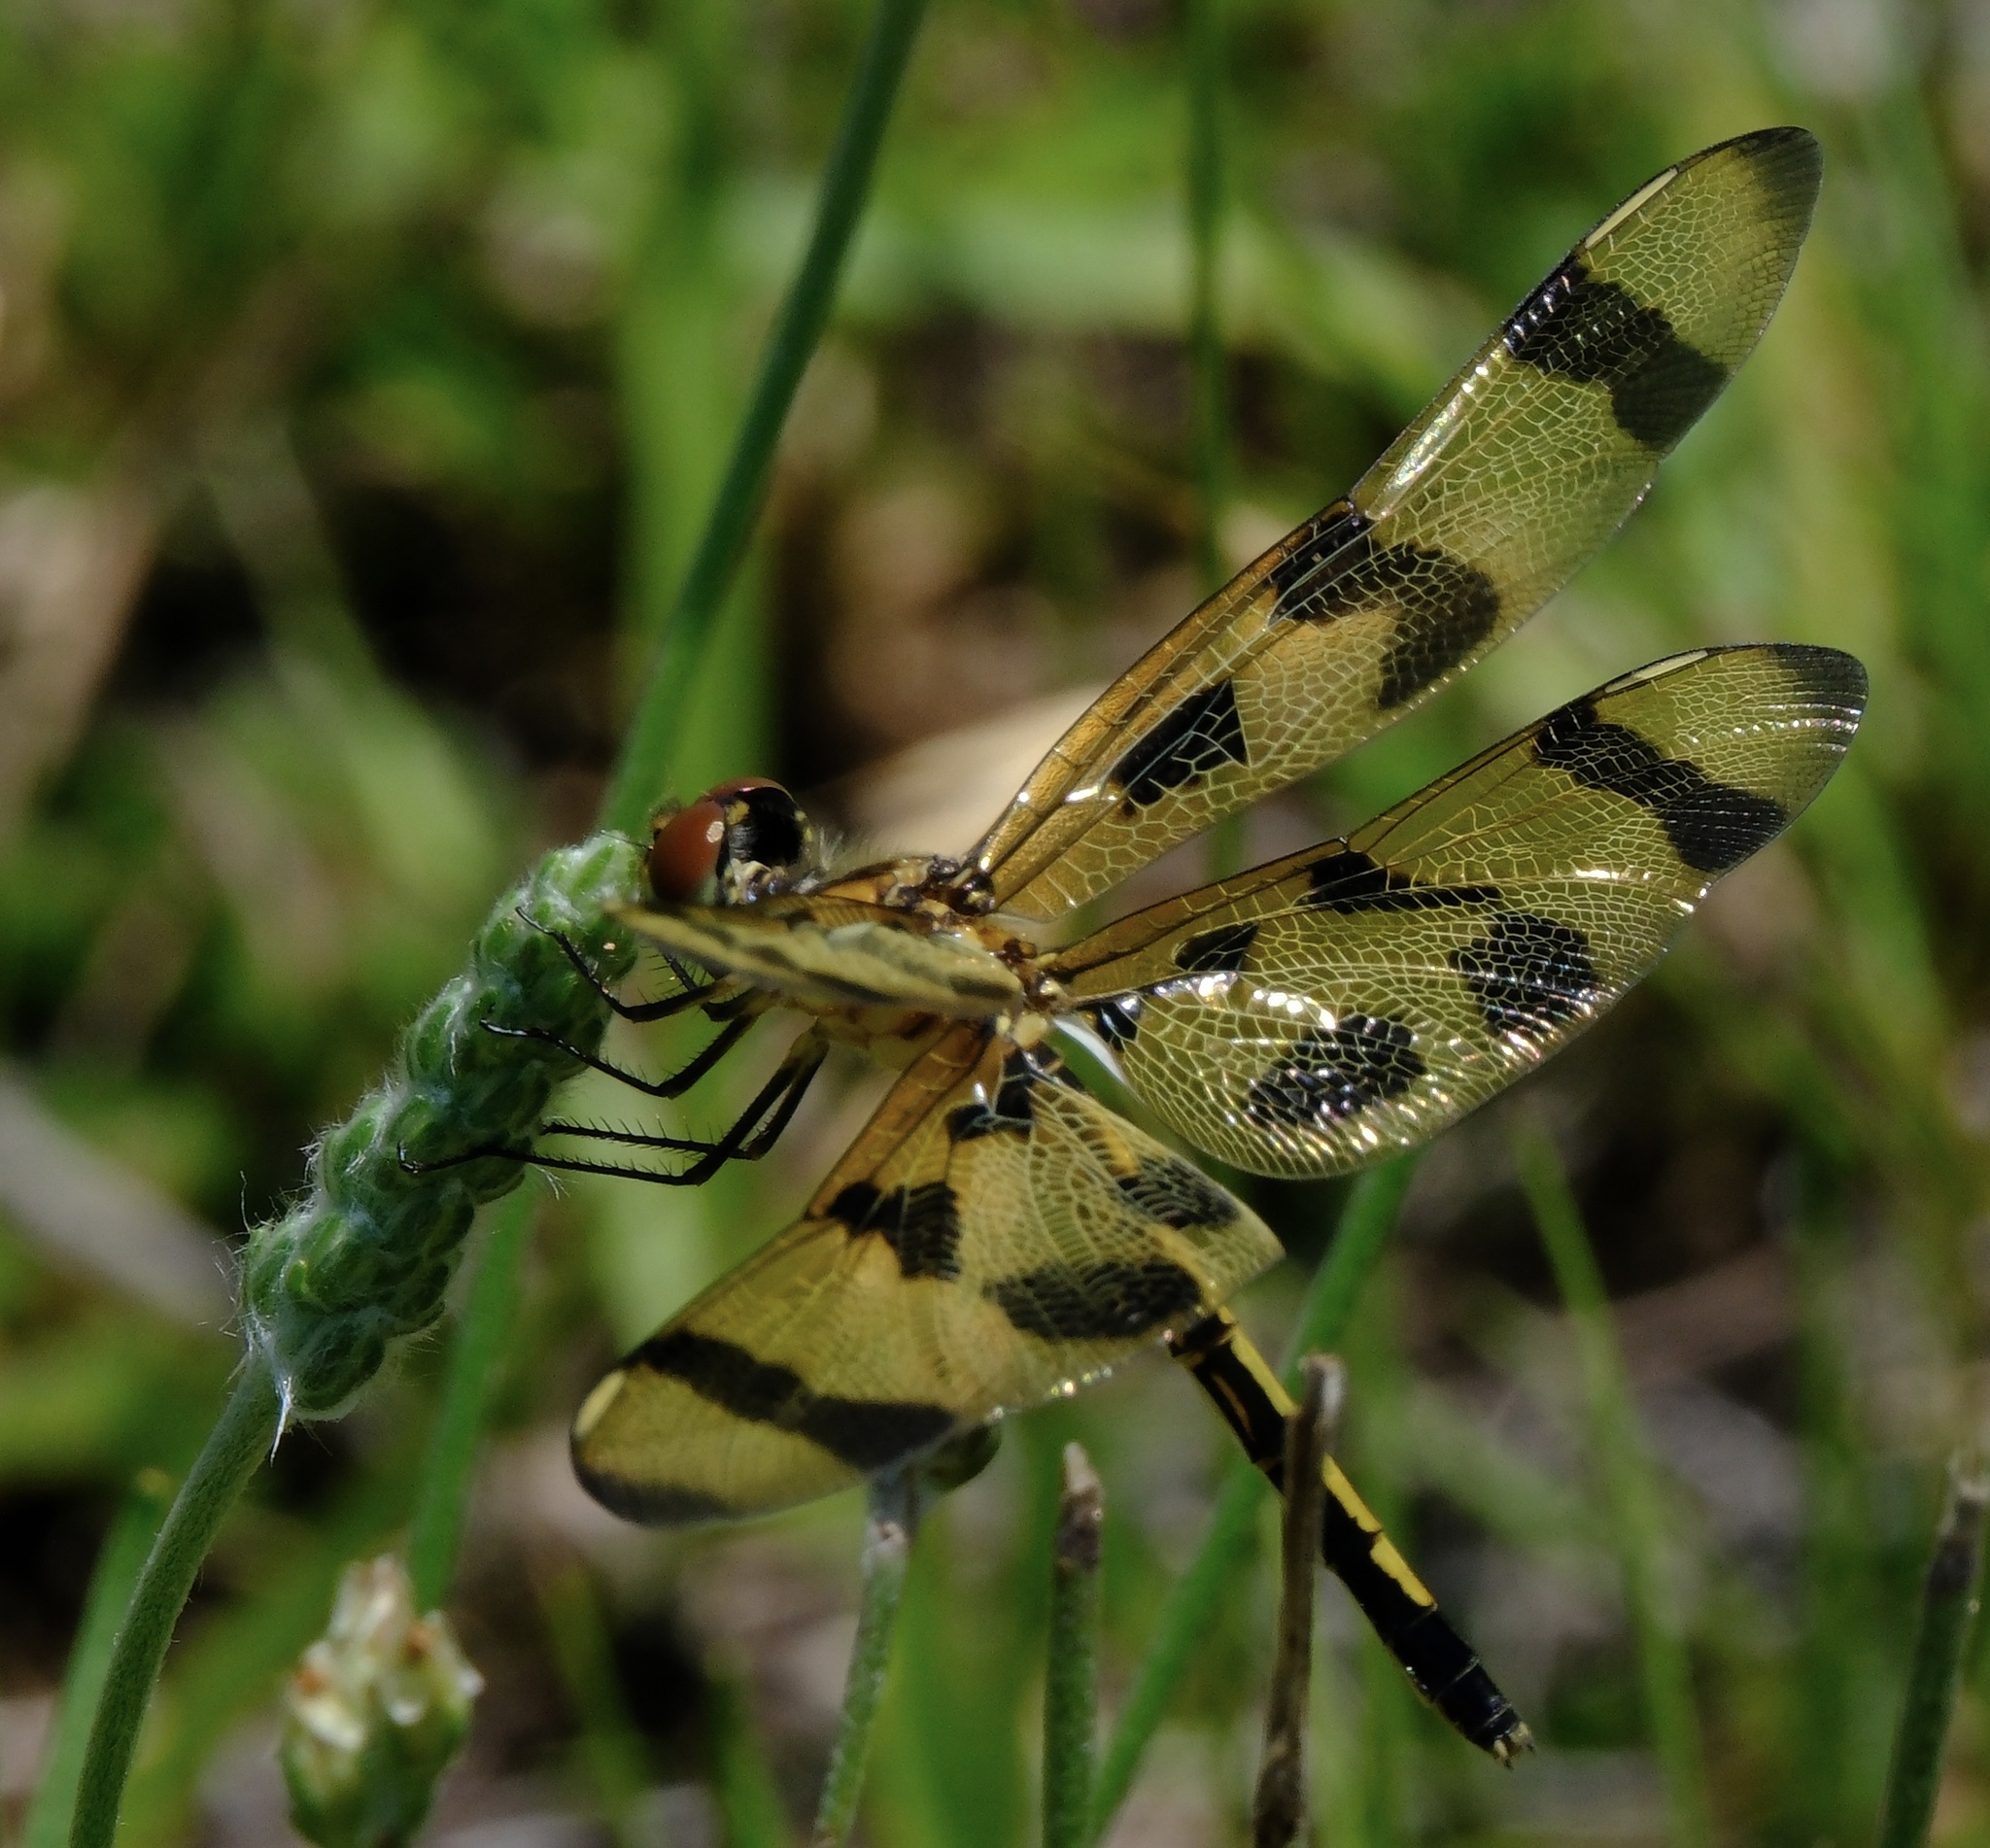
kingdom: Animalia
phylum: Arthropoda
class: Insecta
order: Odonata
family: Libellulidae
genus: Celithemis
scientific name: Celithemis eponina
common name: Halloween pennant
